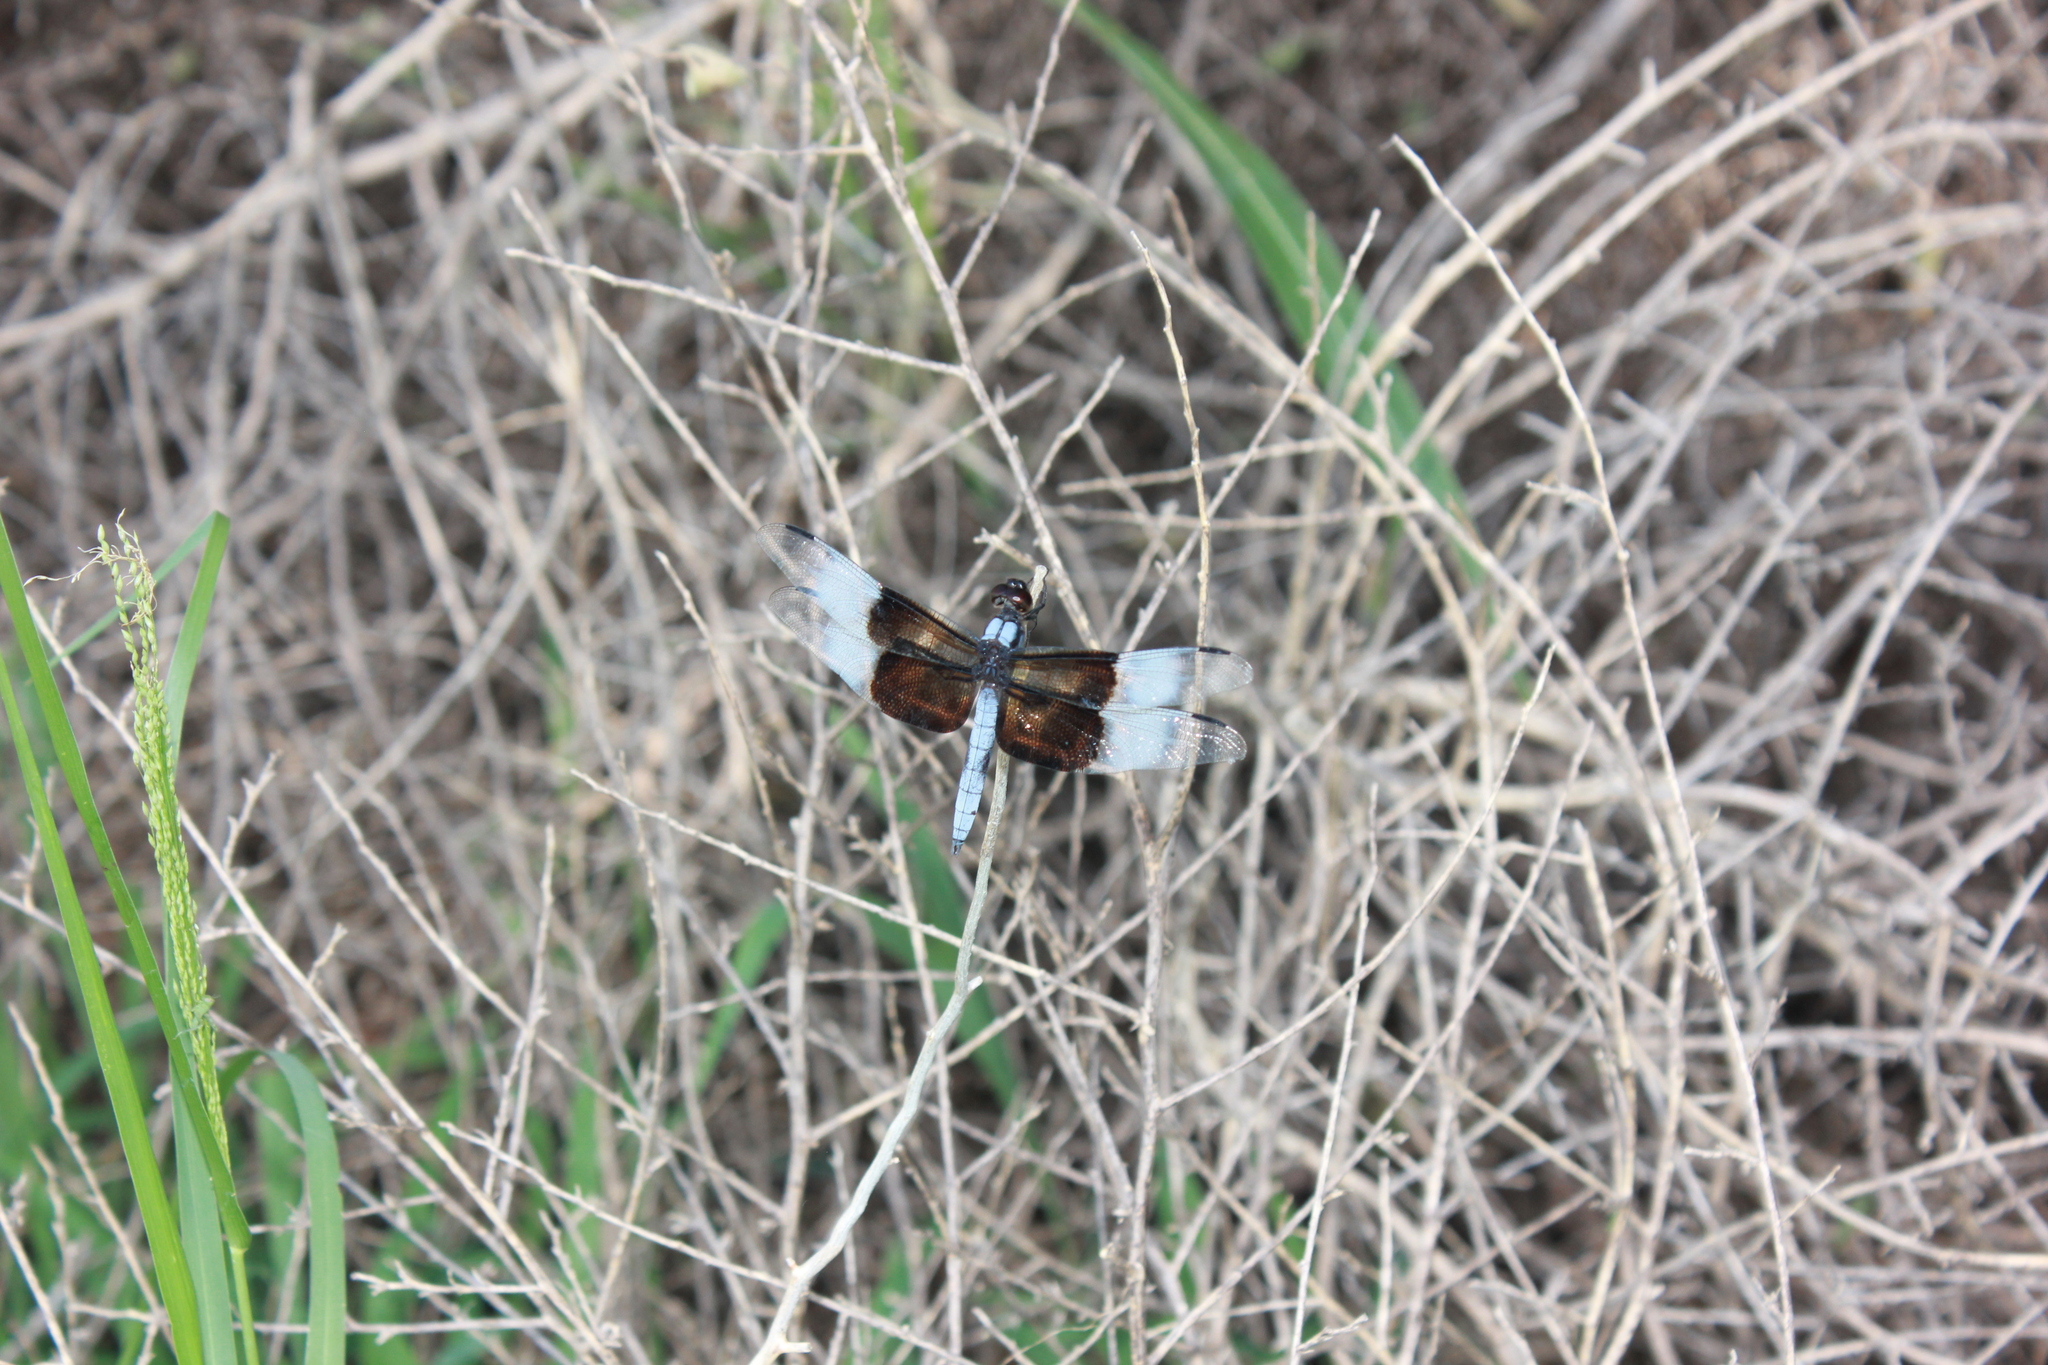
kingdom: Animalia
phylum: Arthropoda
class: Insecta
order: Odonata
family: Libellulidae
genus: Libellula
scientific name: Libellula luctuosa
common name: Widow skimmer
